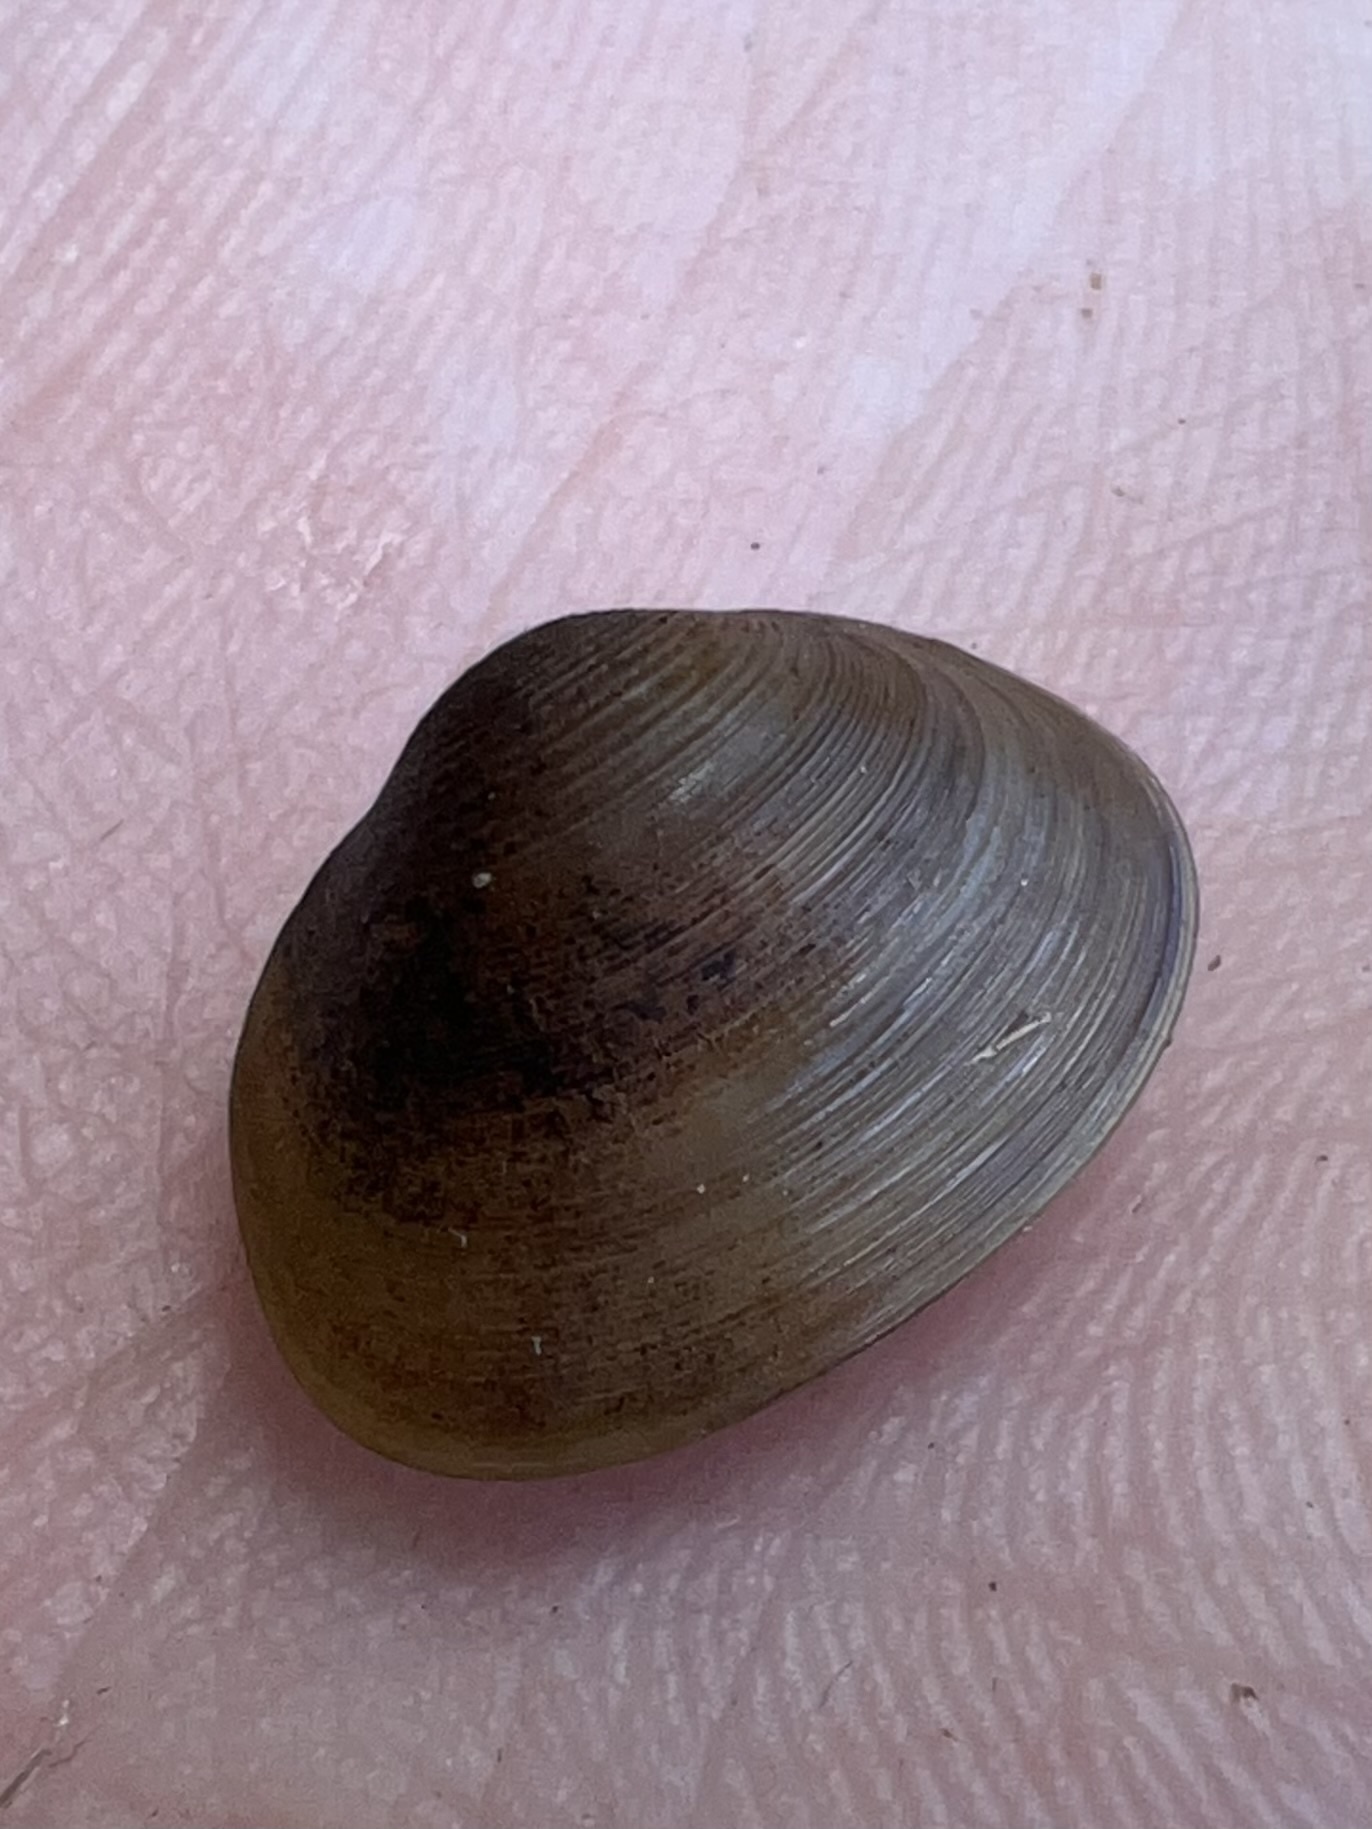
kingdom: Animalia
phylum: Mollusca
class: Bivalvia
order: Sphaeriida
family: Sphaeriidae
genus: Sphaerium
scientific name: Sphaerium simile
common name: Grooved fingernailclam
